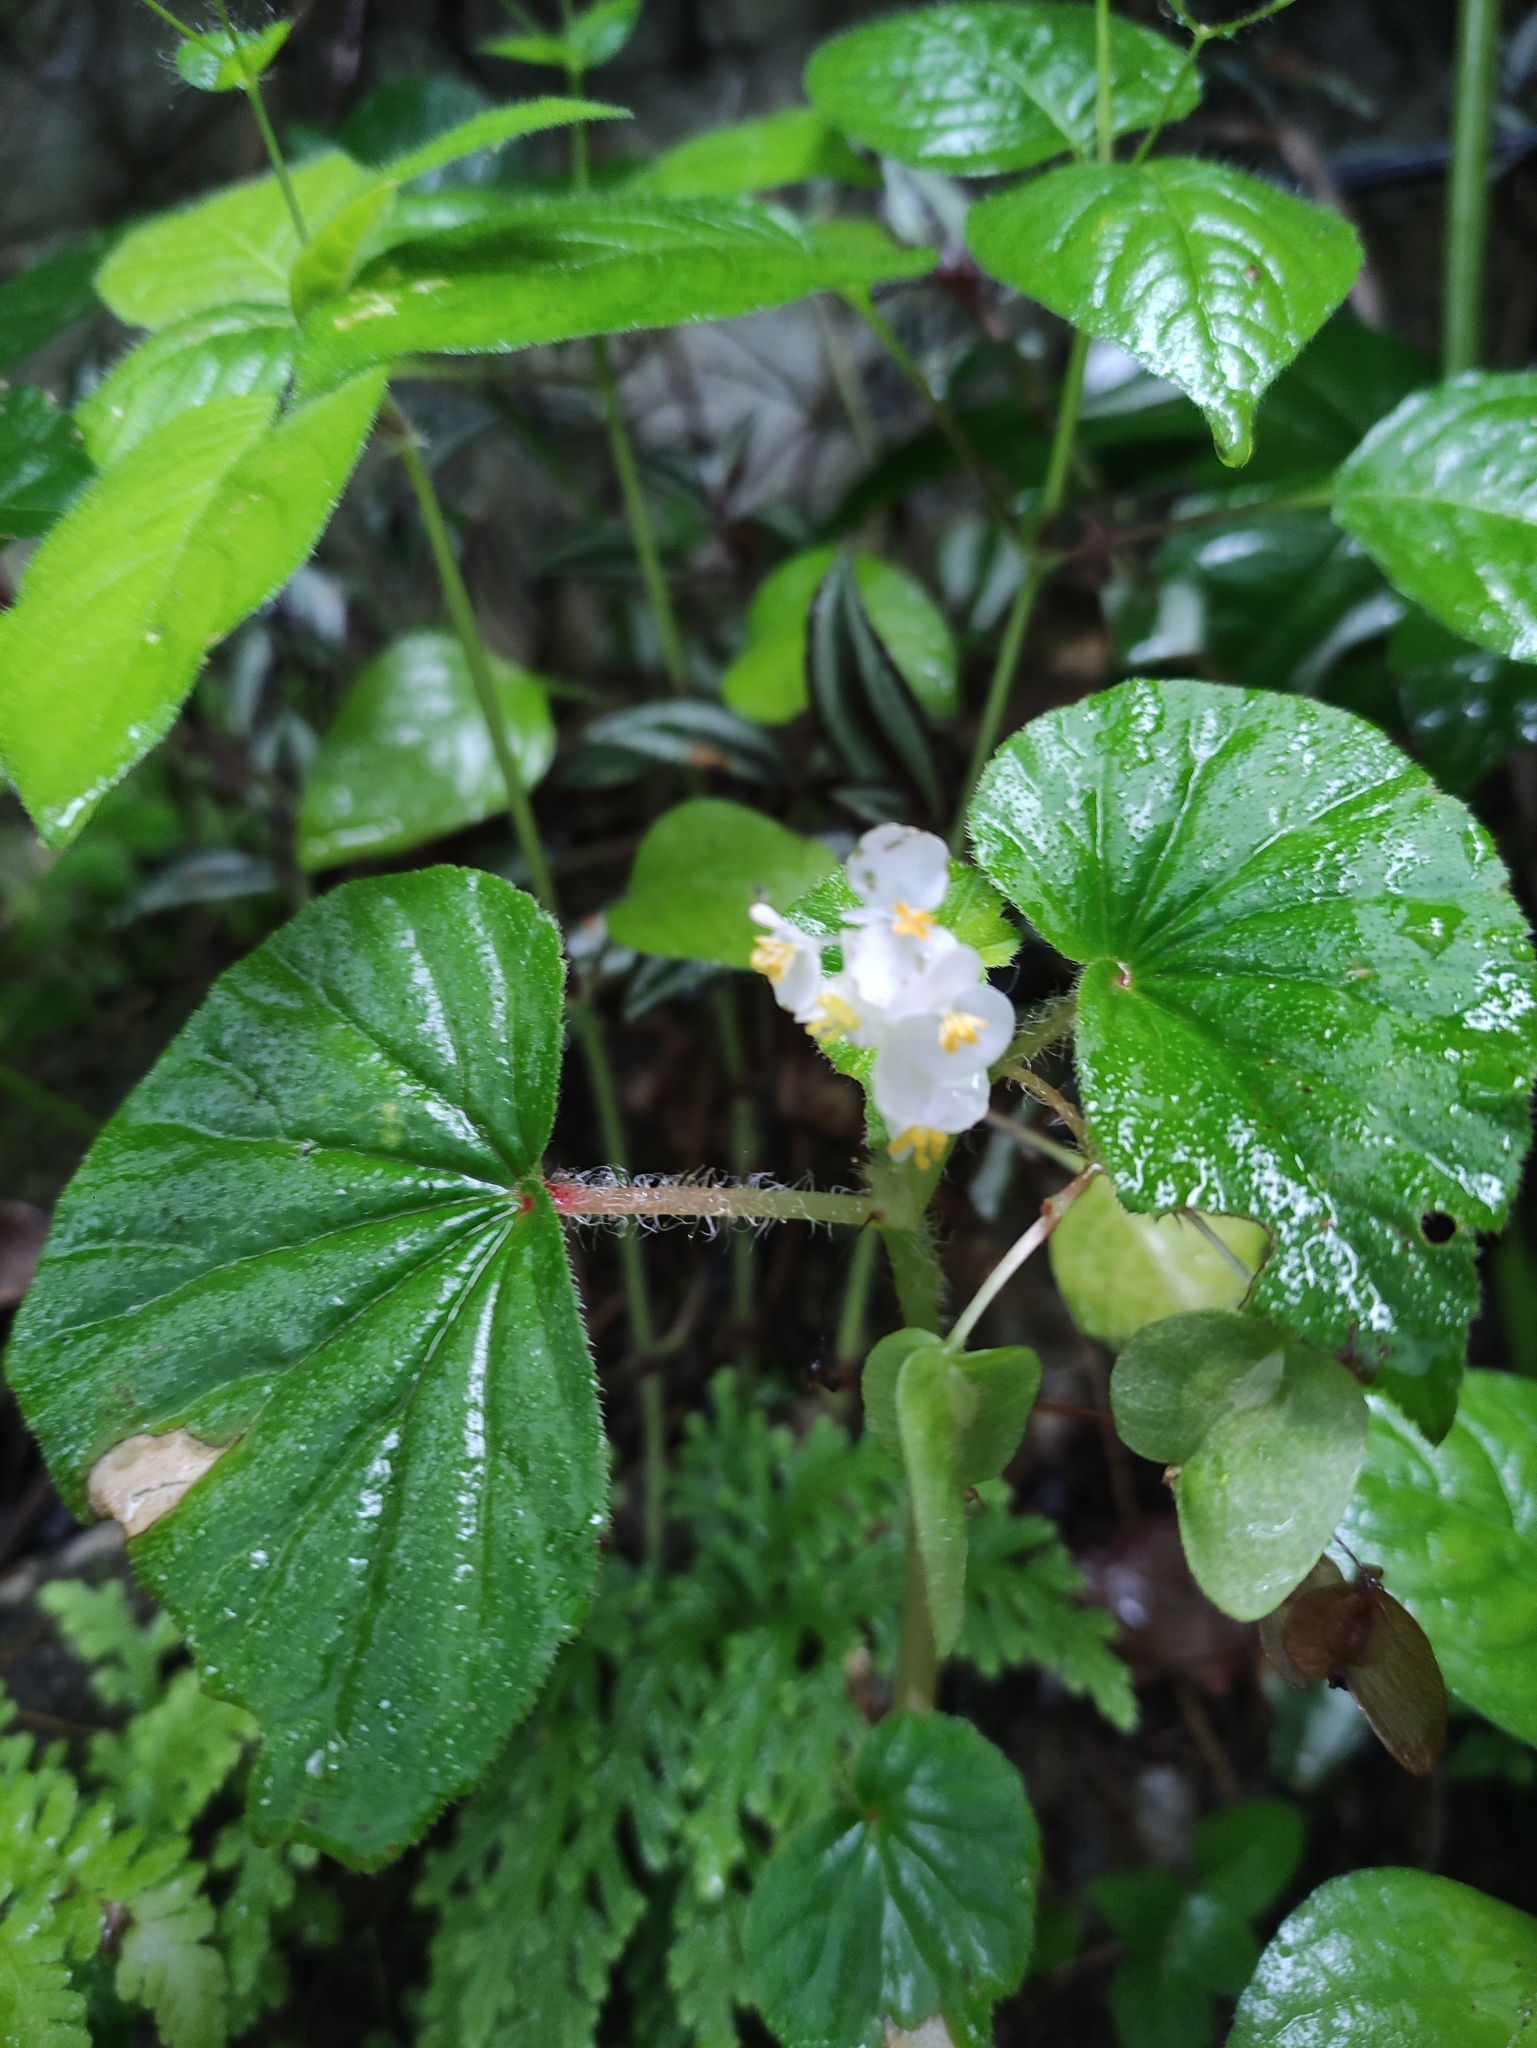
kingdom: Plantae
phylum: Tracheophyta
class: Magnoliopsida
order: Cucurbitales
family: Begoniaceae
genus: Begonia
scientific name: Begonia hirtella
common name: Brazilian begonia
